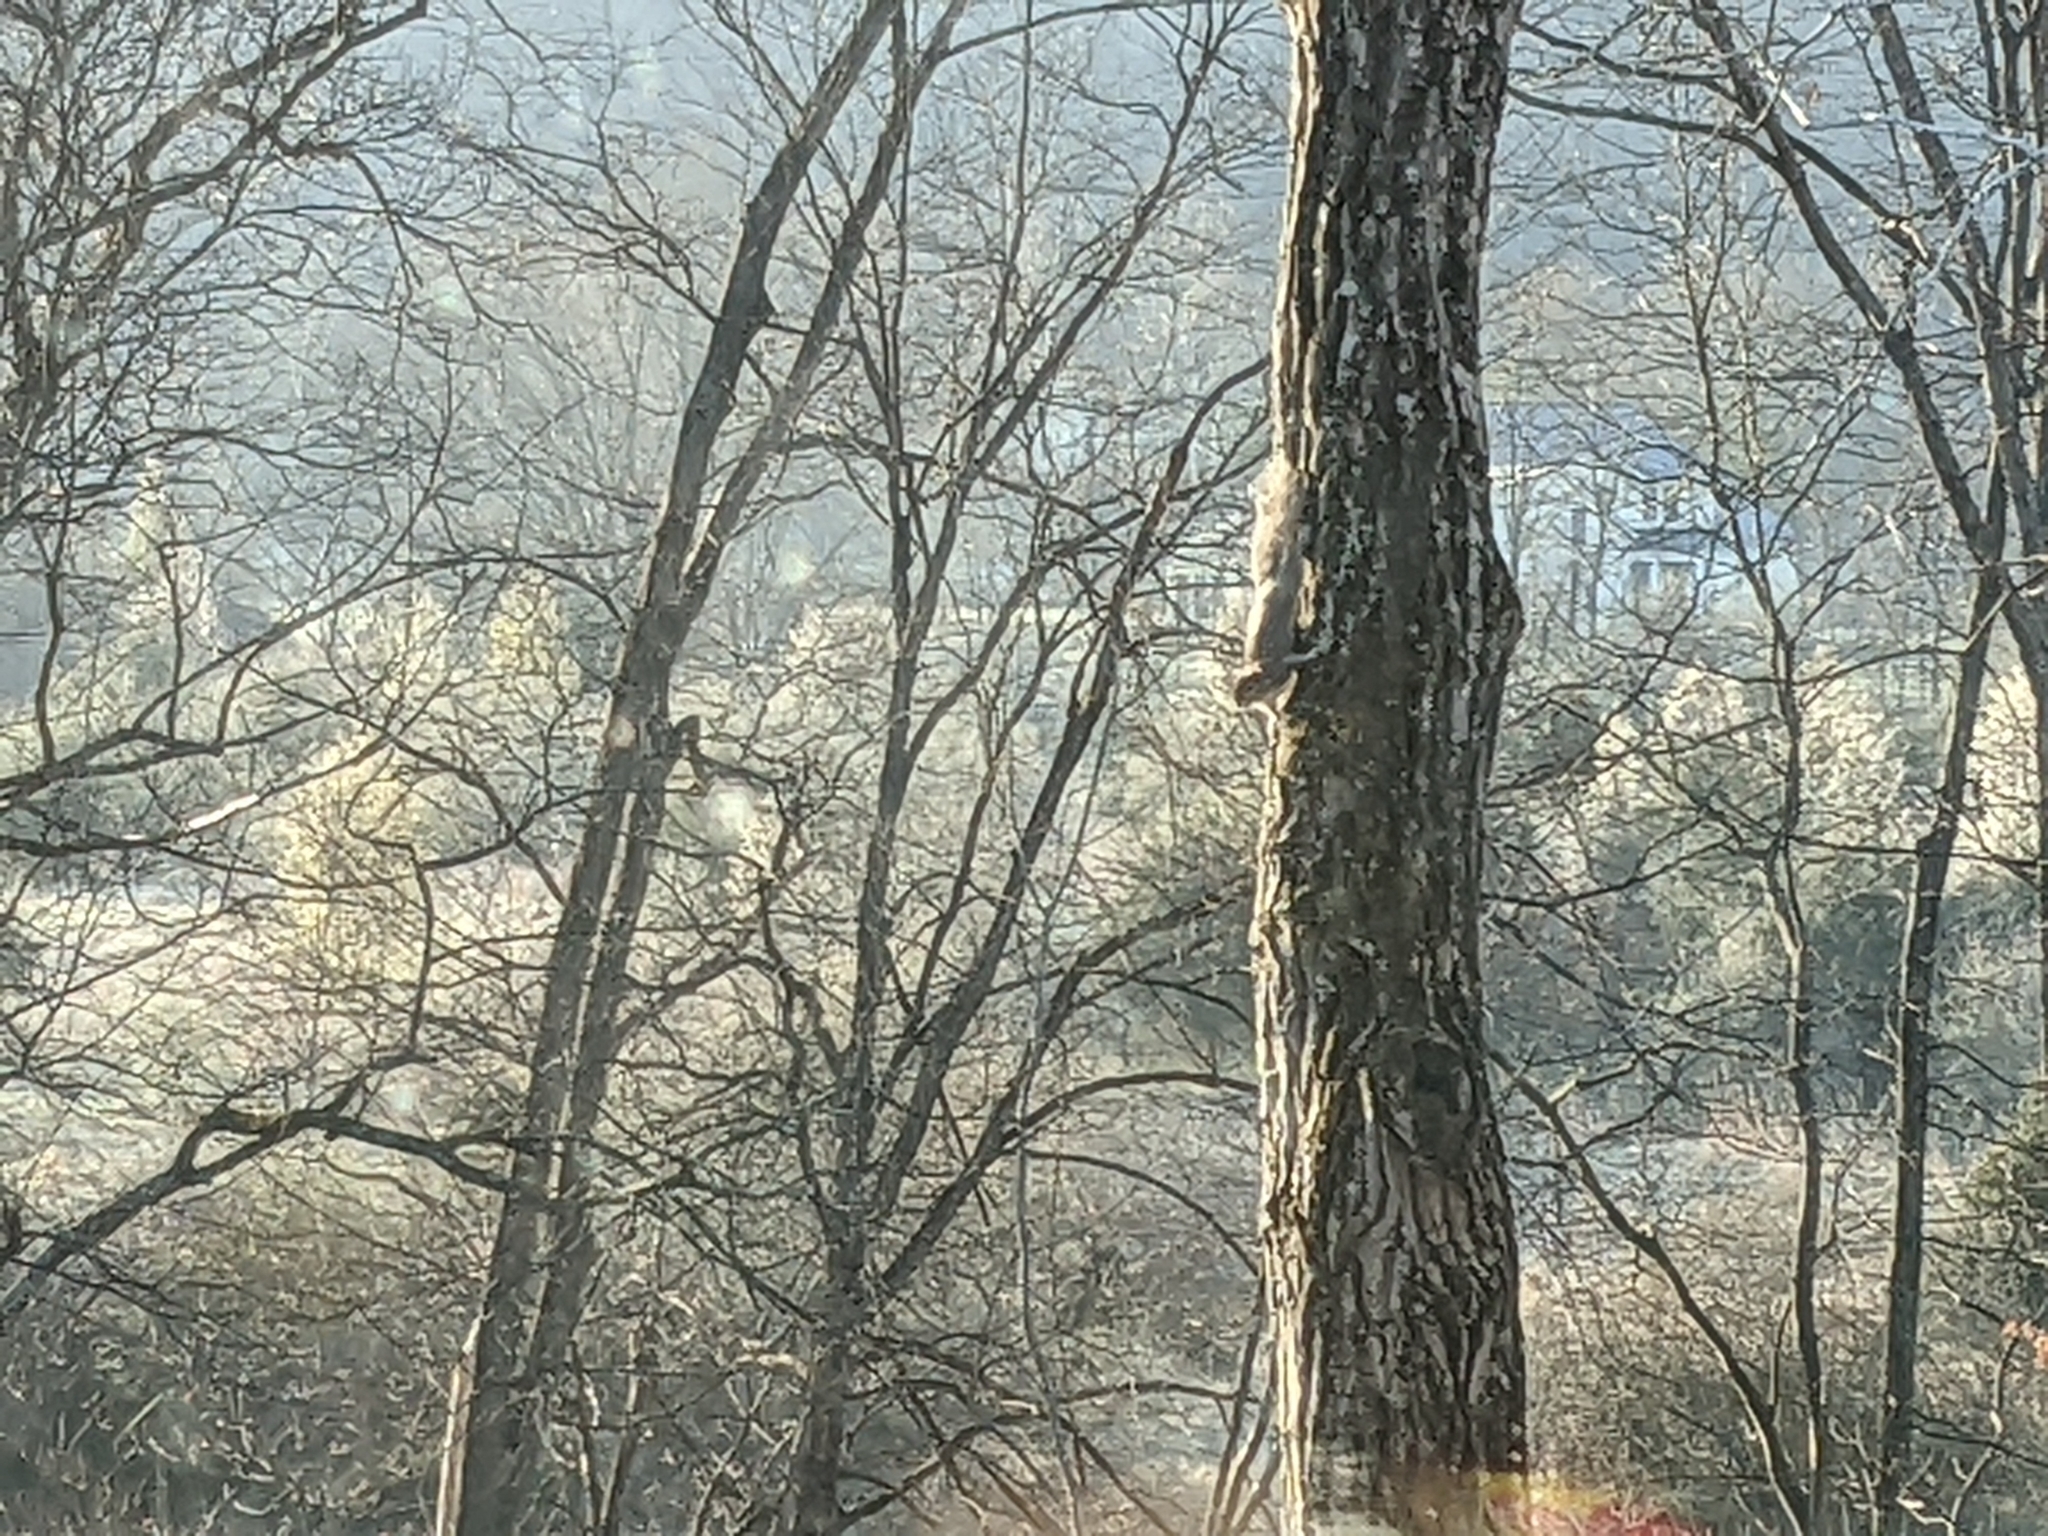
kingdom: Animalia
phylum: Chordata
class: Mammalia
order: Rodentia
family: Sciuridae
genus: Sciurus
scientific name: Sciurus carolinensis
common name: Eastern gray squirrel
